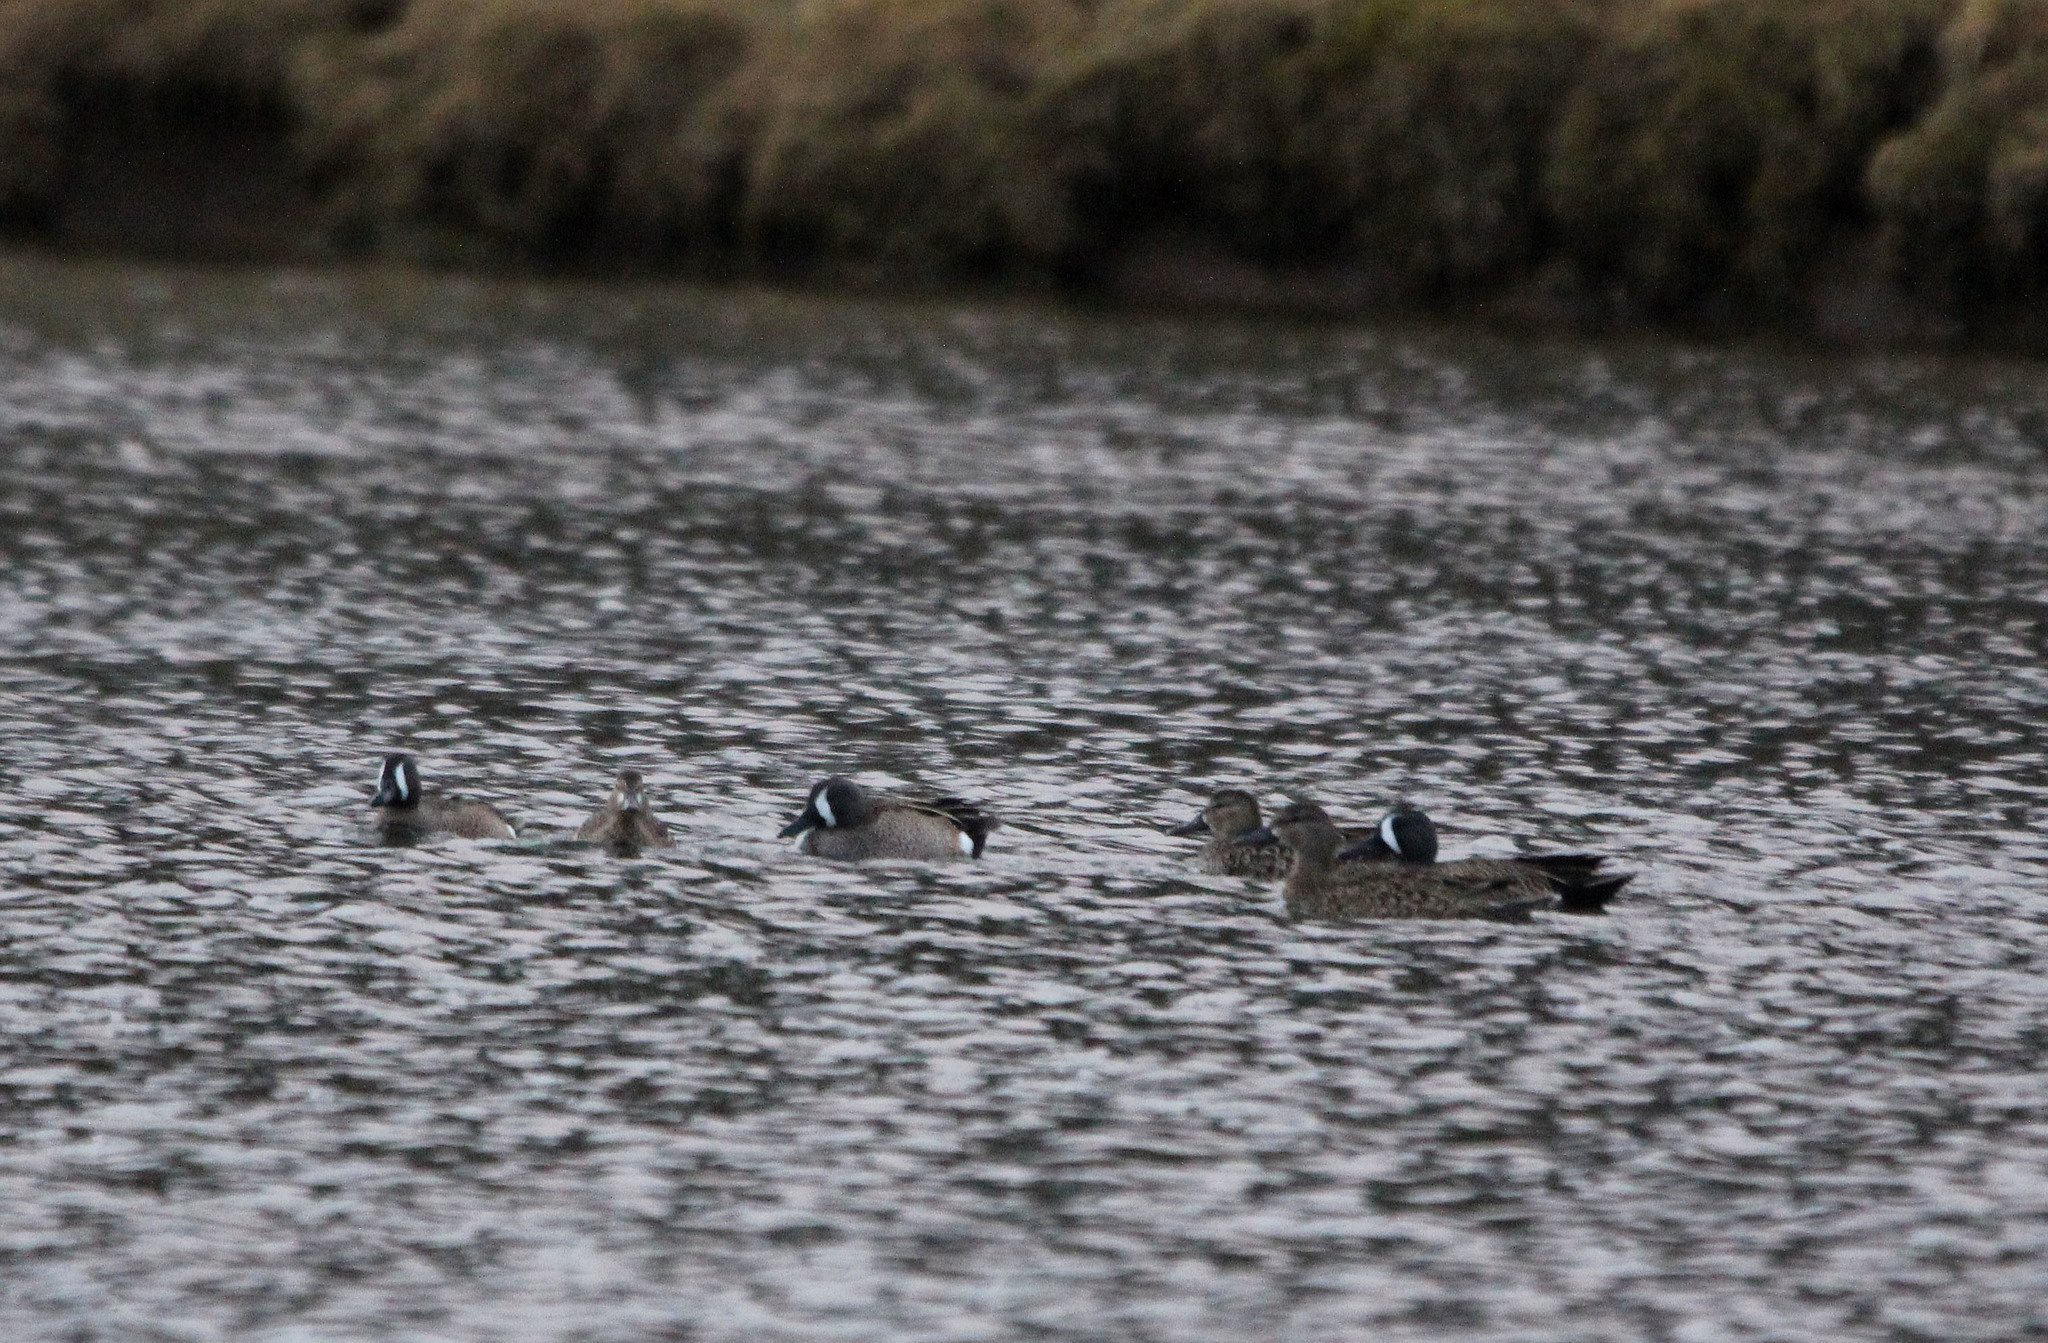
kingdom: Animalia
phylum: Chordata
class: Aves
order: Anseriformes
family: Anatidae
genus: Spatula
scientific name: Spatula discors
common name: Blue-winged teal
